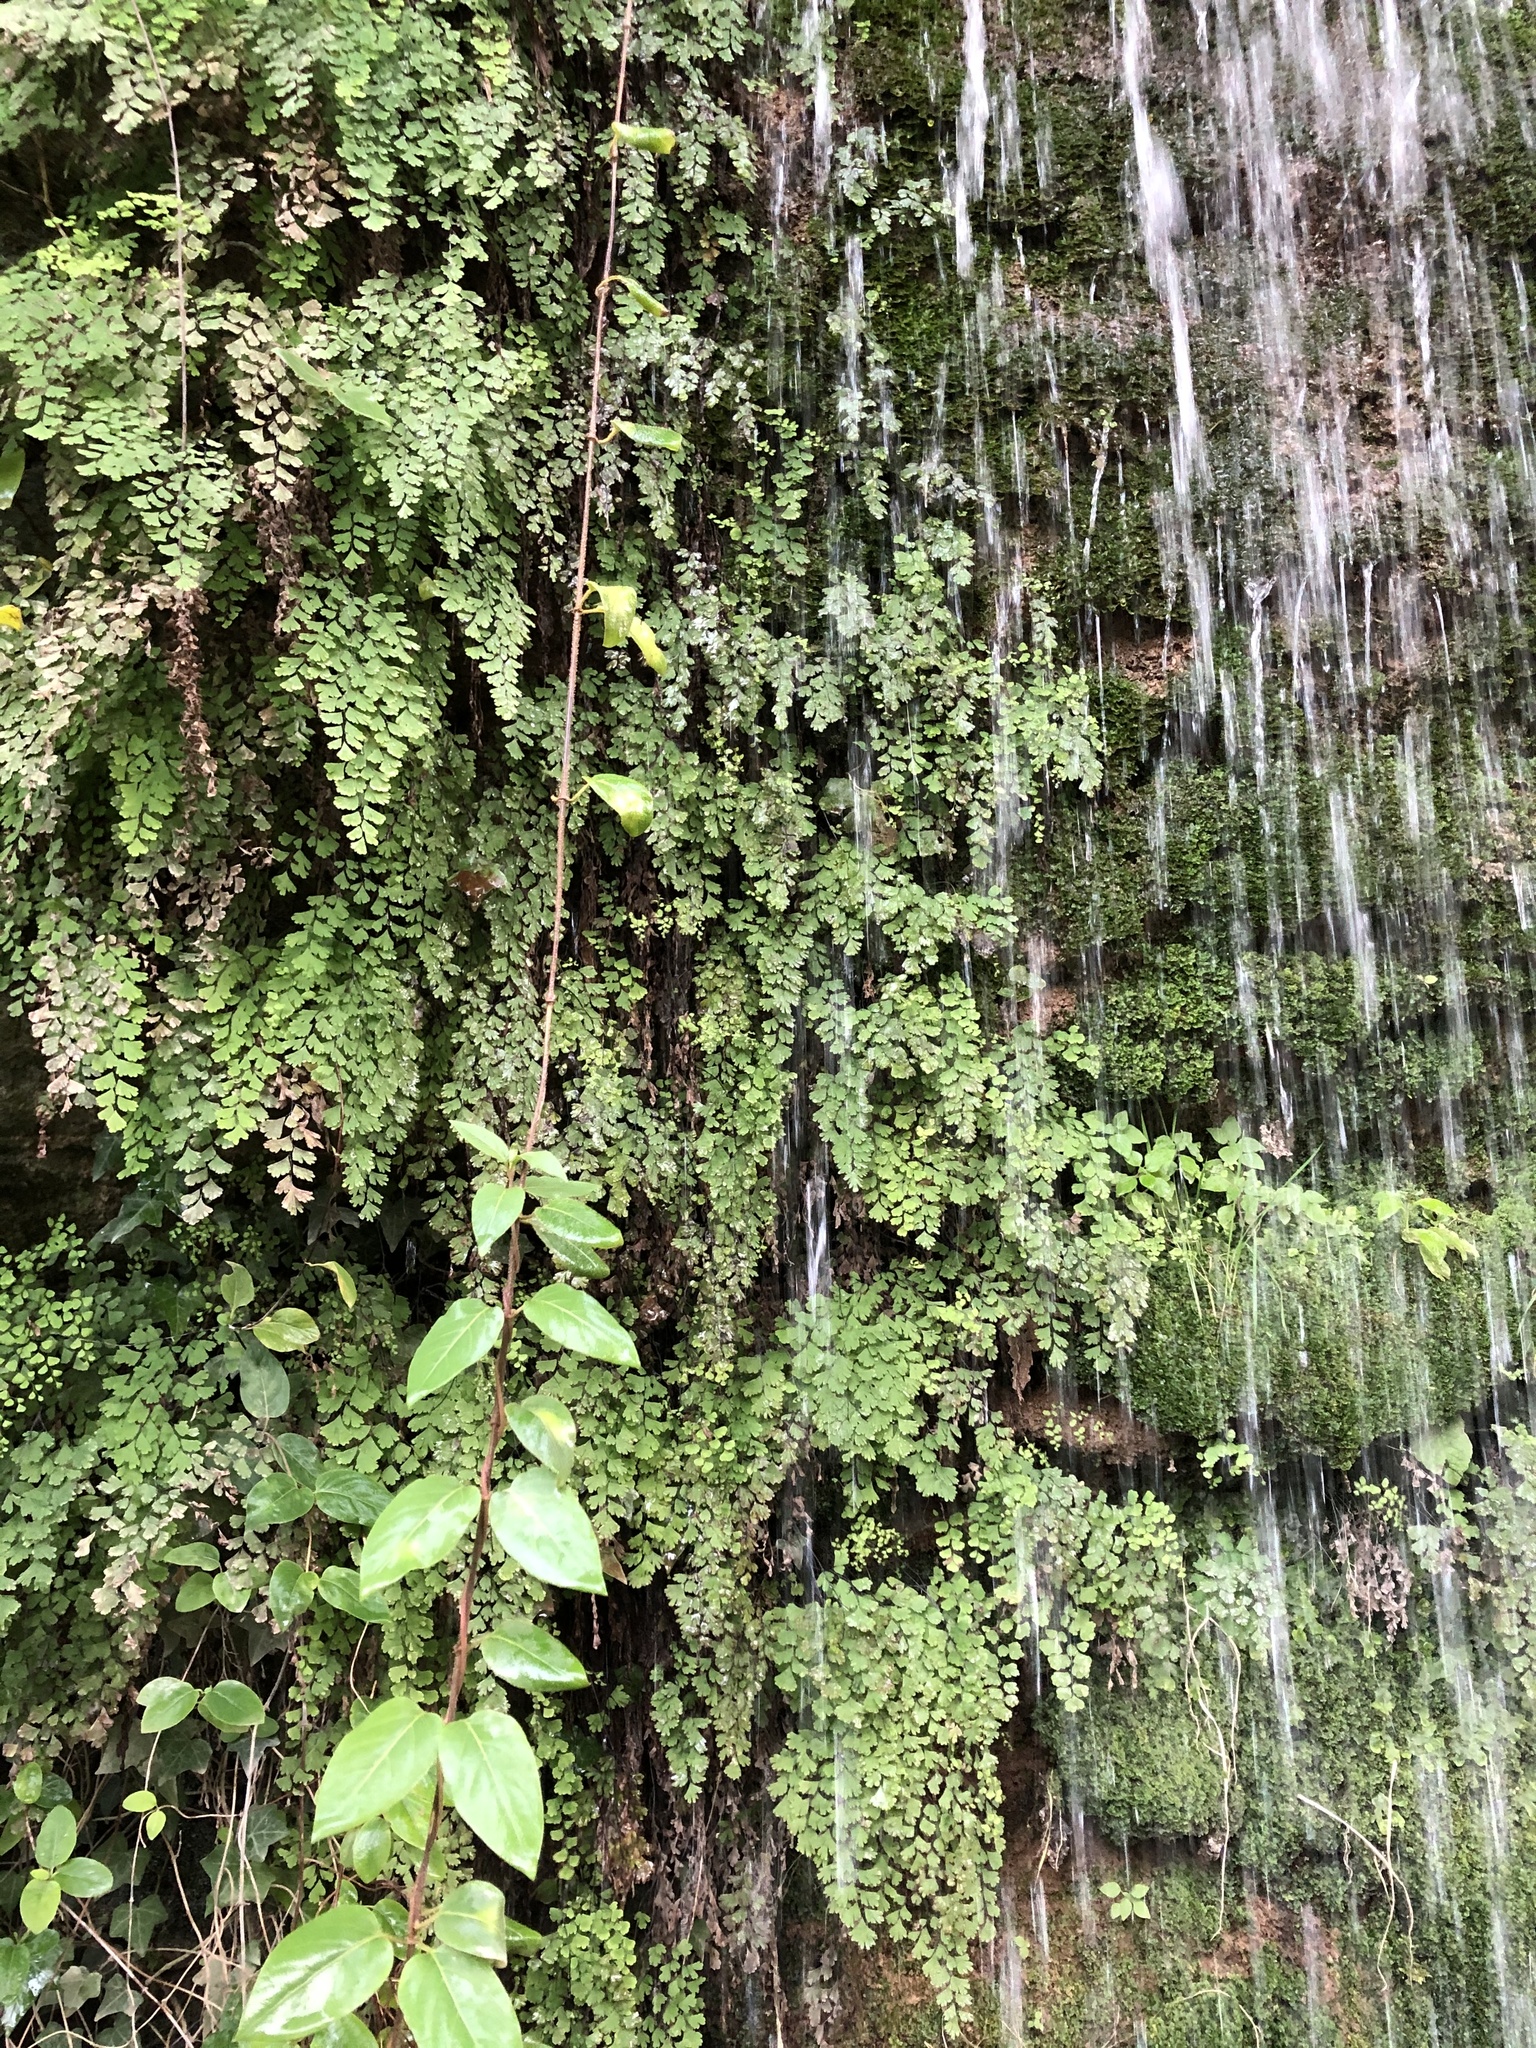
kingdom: Plantae
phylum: Tracheophyta
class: Polypodiopsida
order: Polypodiales
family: Pteridaceae
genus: Adiantum
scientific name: Adiantum capillus-veneris
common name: Maidenhair fern
